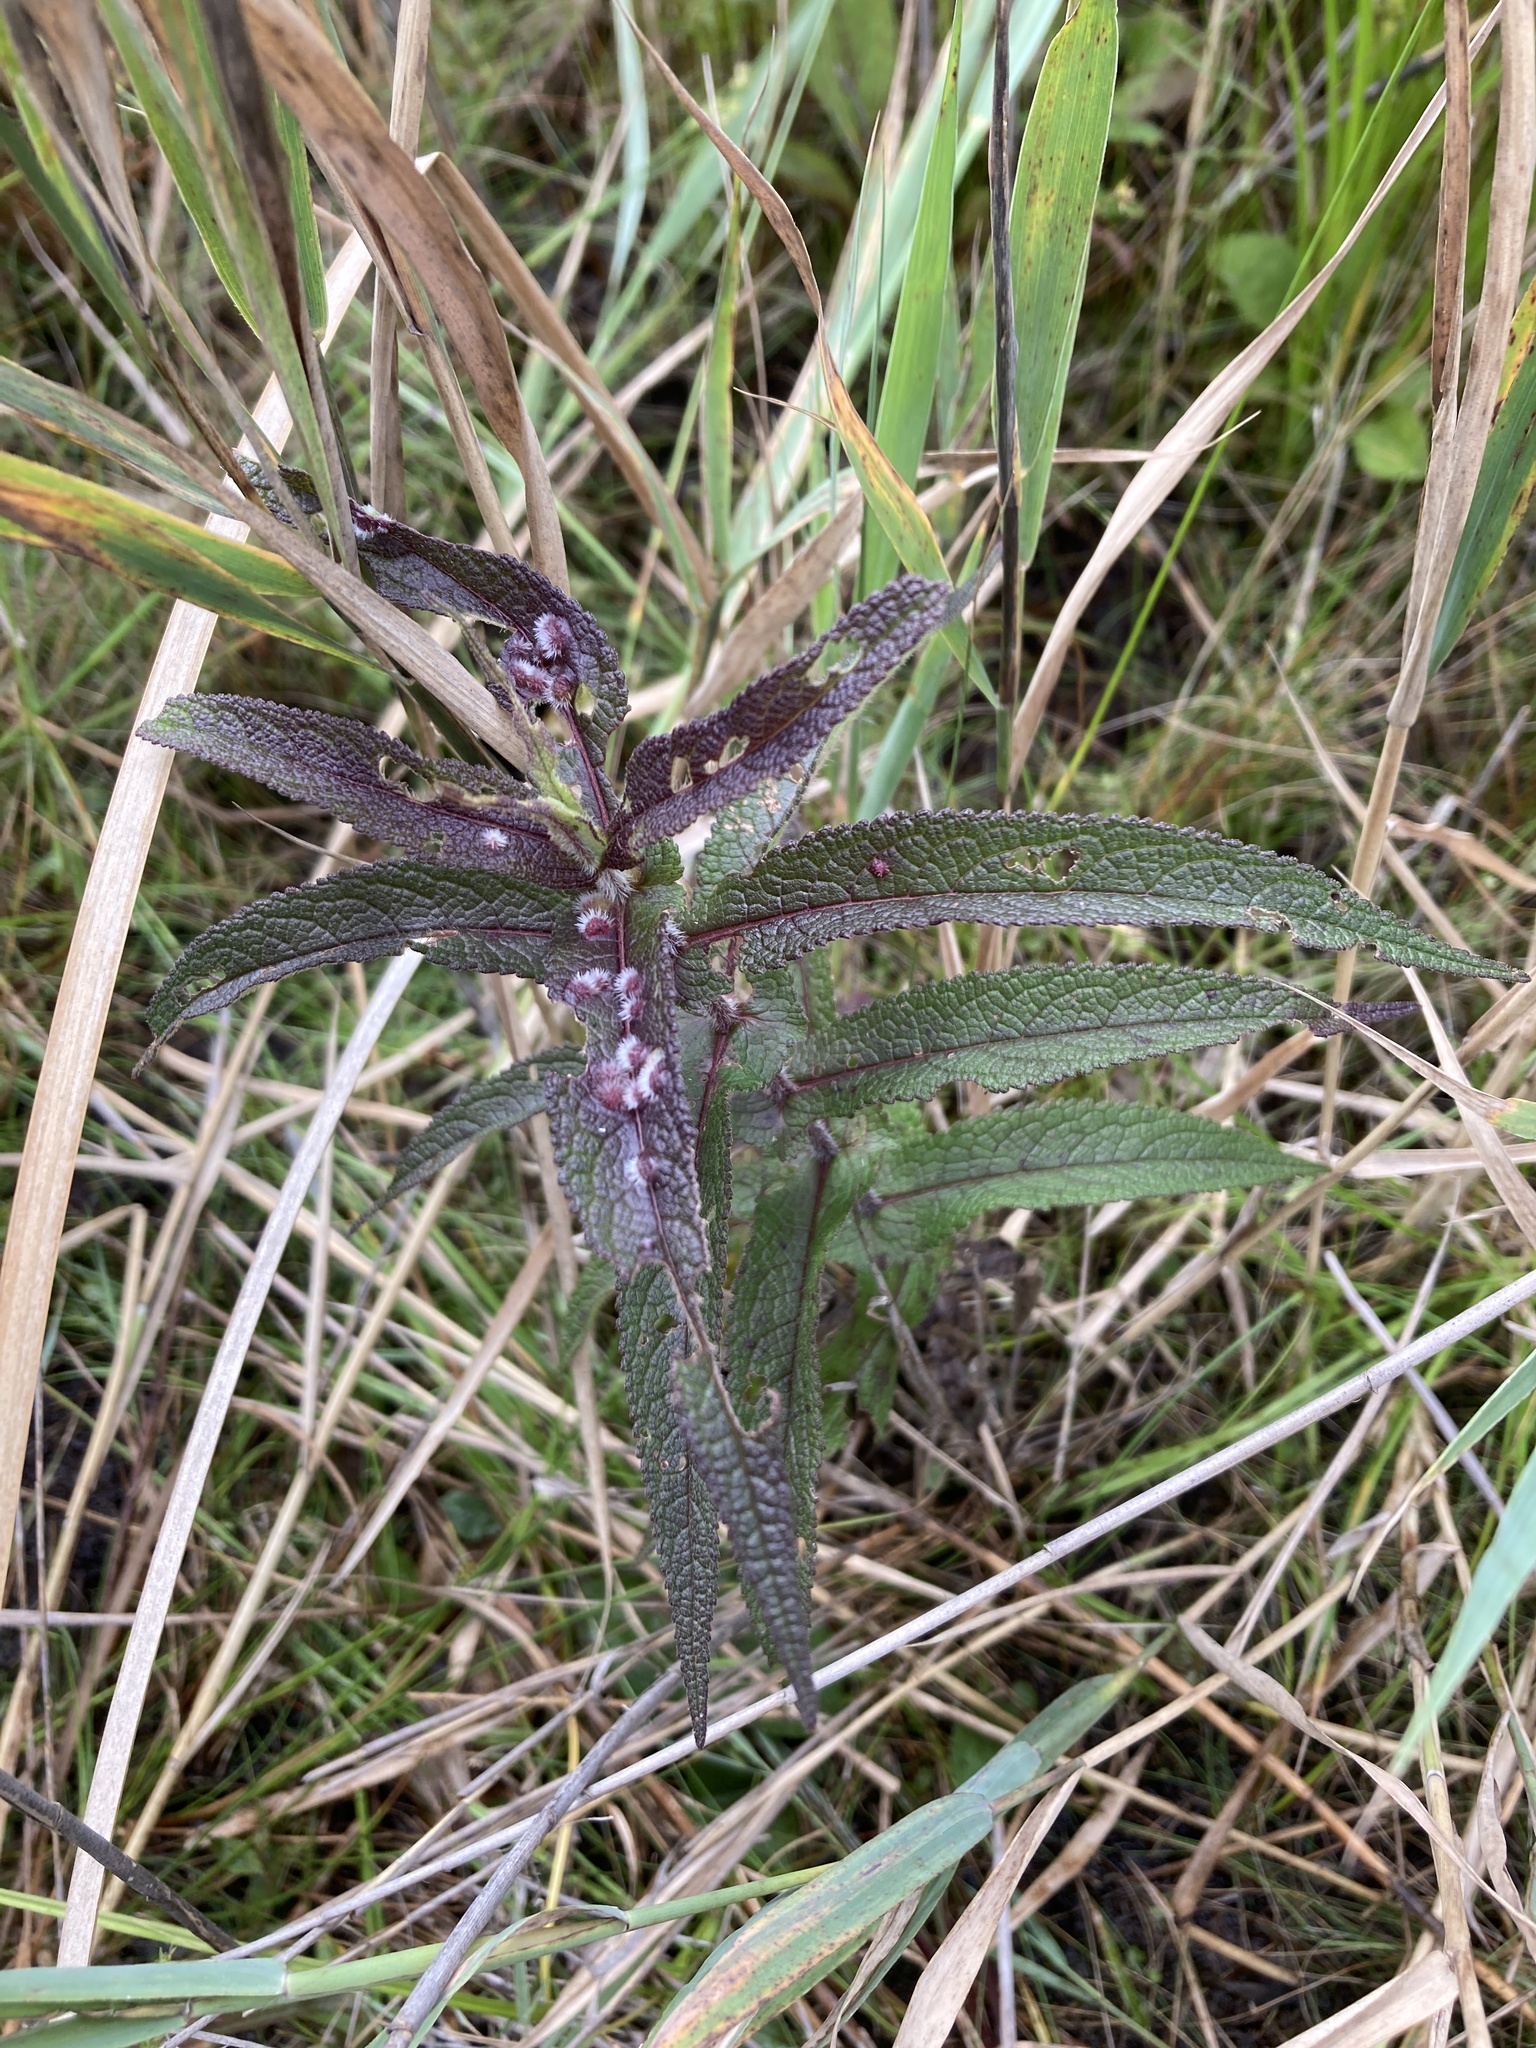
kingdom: Plantae
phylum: Tracheophyta
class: Magnoliopsida
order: Asterales
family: Asteraceae
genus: Eupatorium
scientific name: Eupatorium perfoliatum
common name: Boneset
